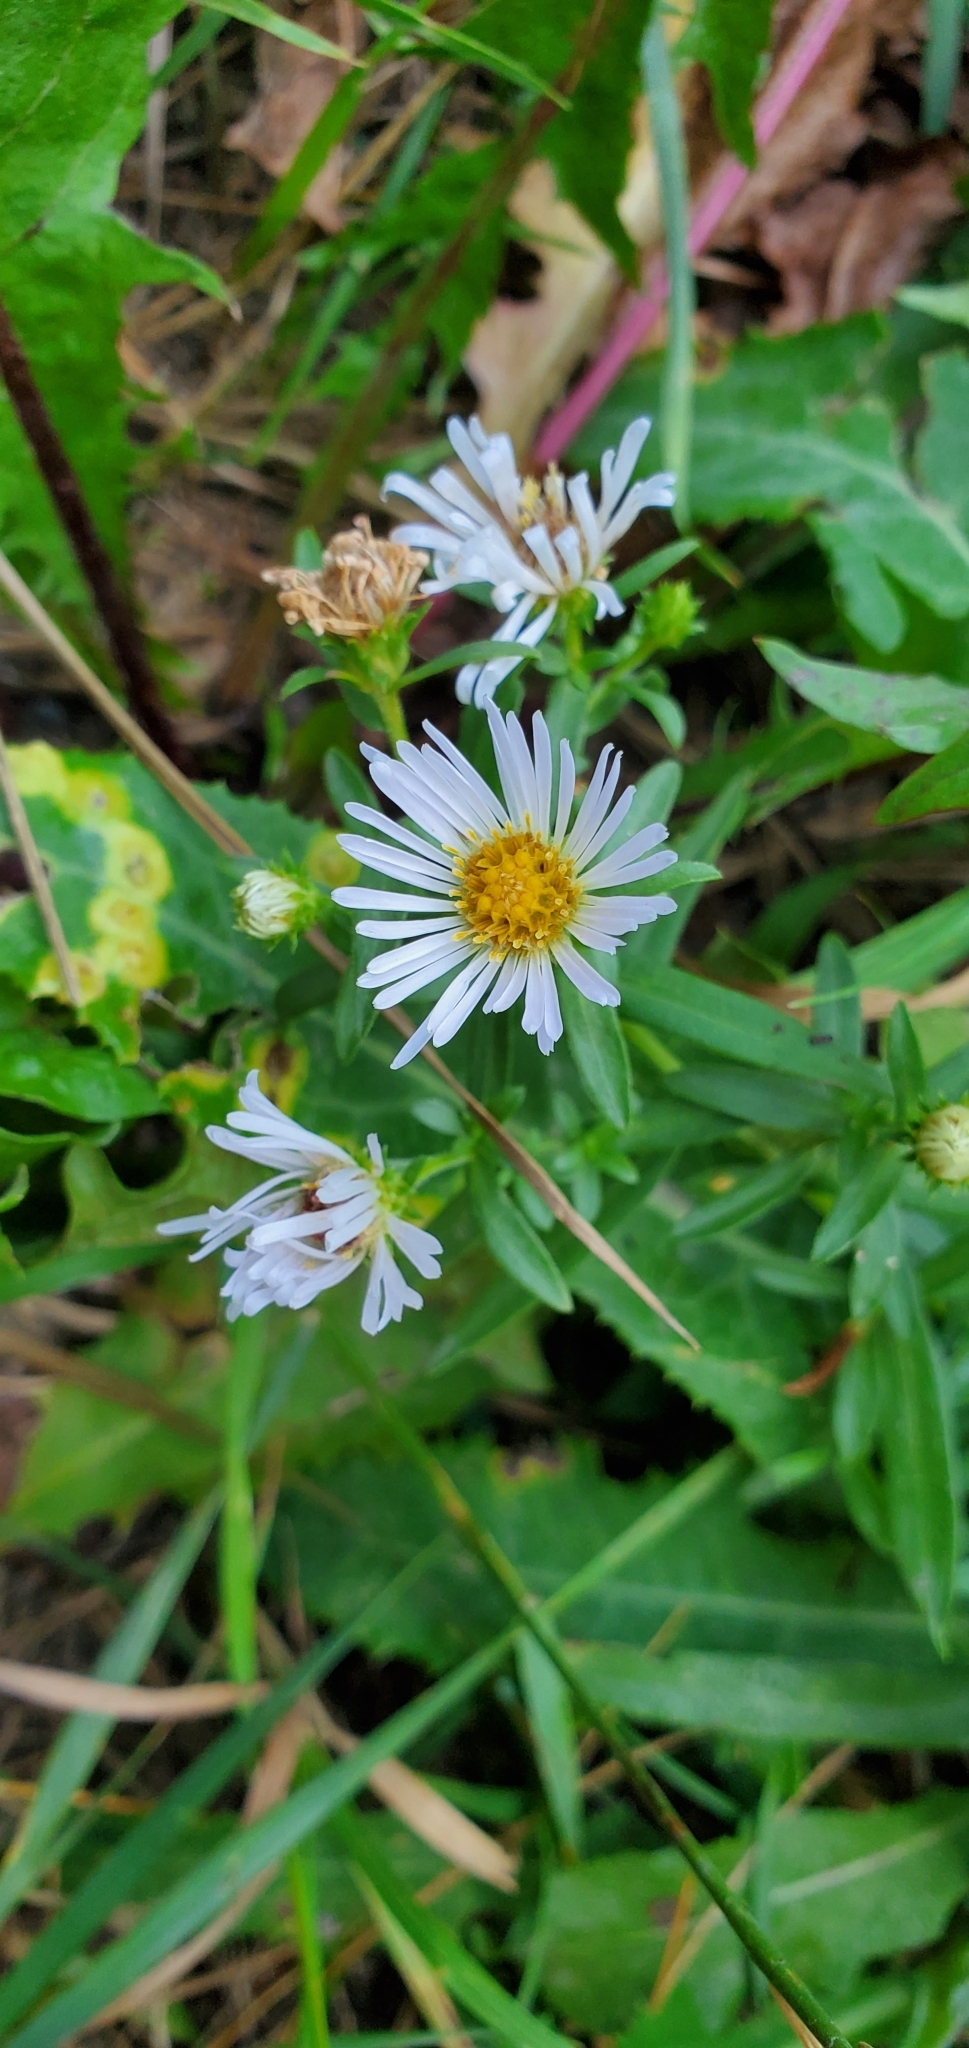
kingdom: Plantae
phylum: Tracheophyta
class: Magnoliopsida
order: Asterales
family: Asteraceae
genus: Symphyotrichum
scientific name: Symphyotrichum lanceolatum
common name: Panicled aster
